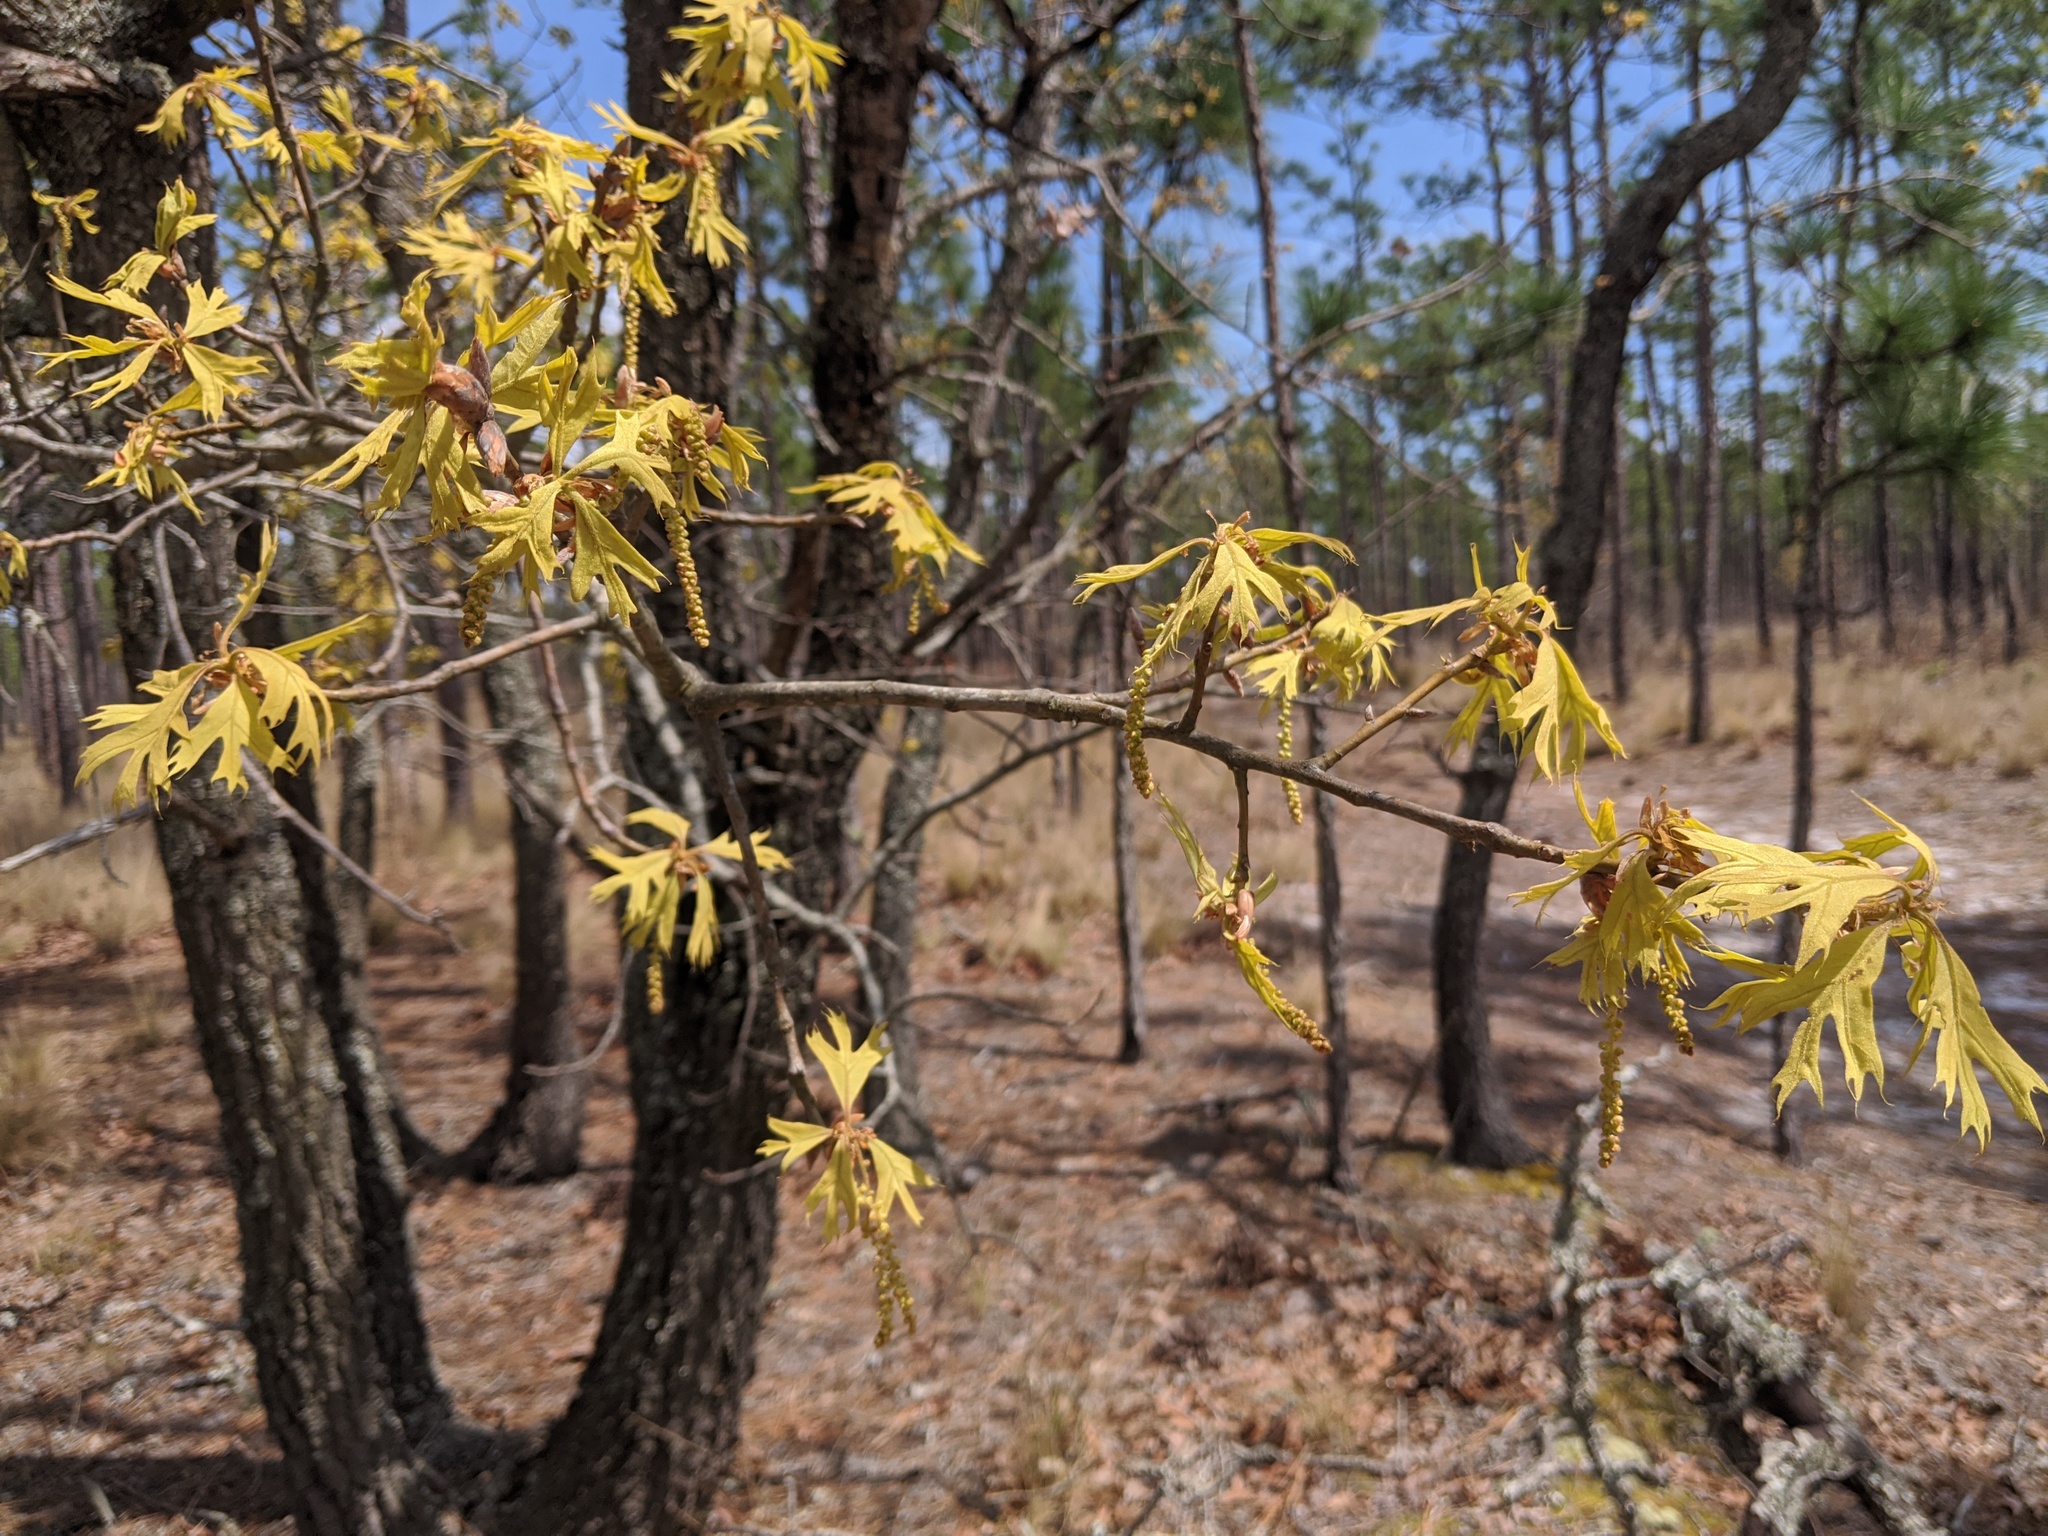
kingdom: Plantae
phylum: Tracheophyta
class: Magnoliopsida
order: Fagales
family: Fagaceae
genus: Quercus
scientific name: Quercus laevis
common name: Turkey oak
